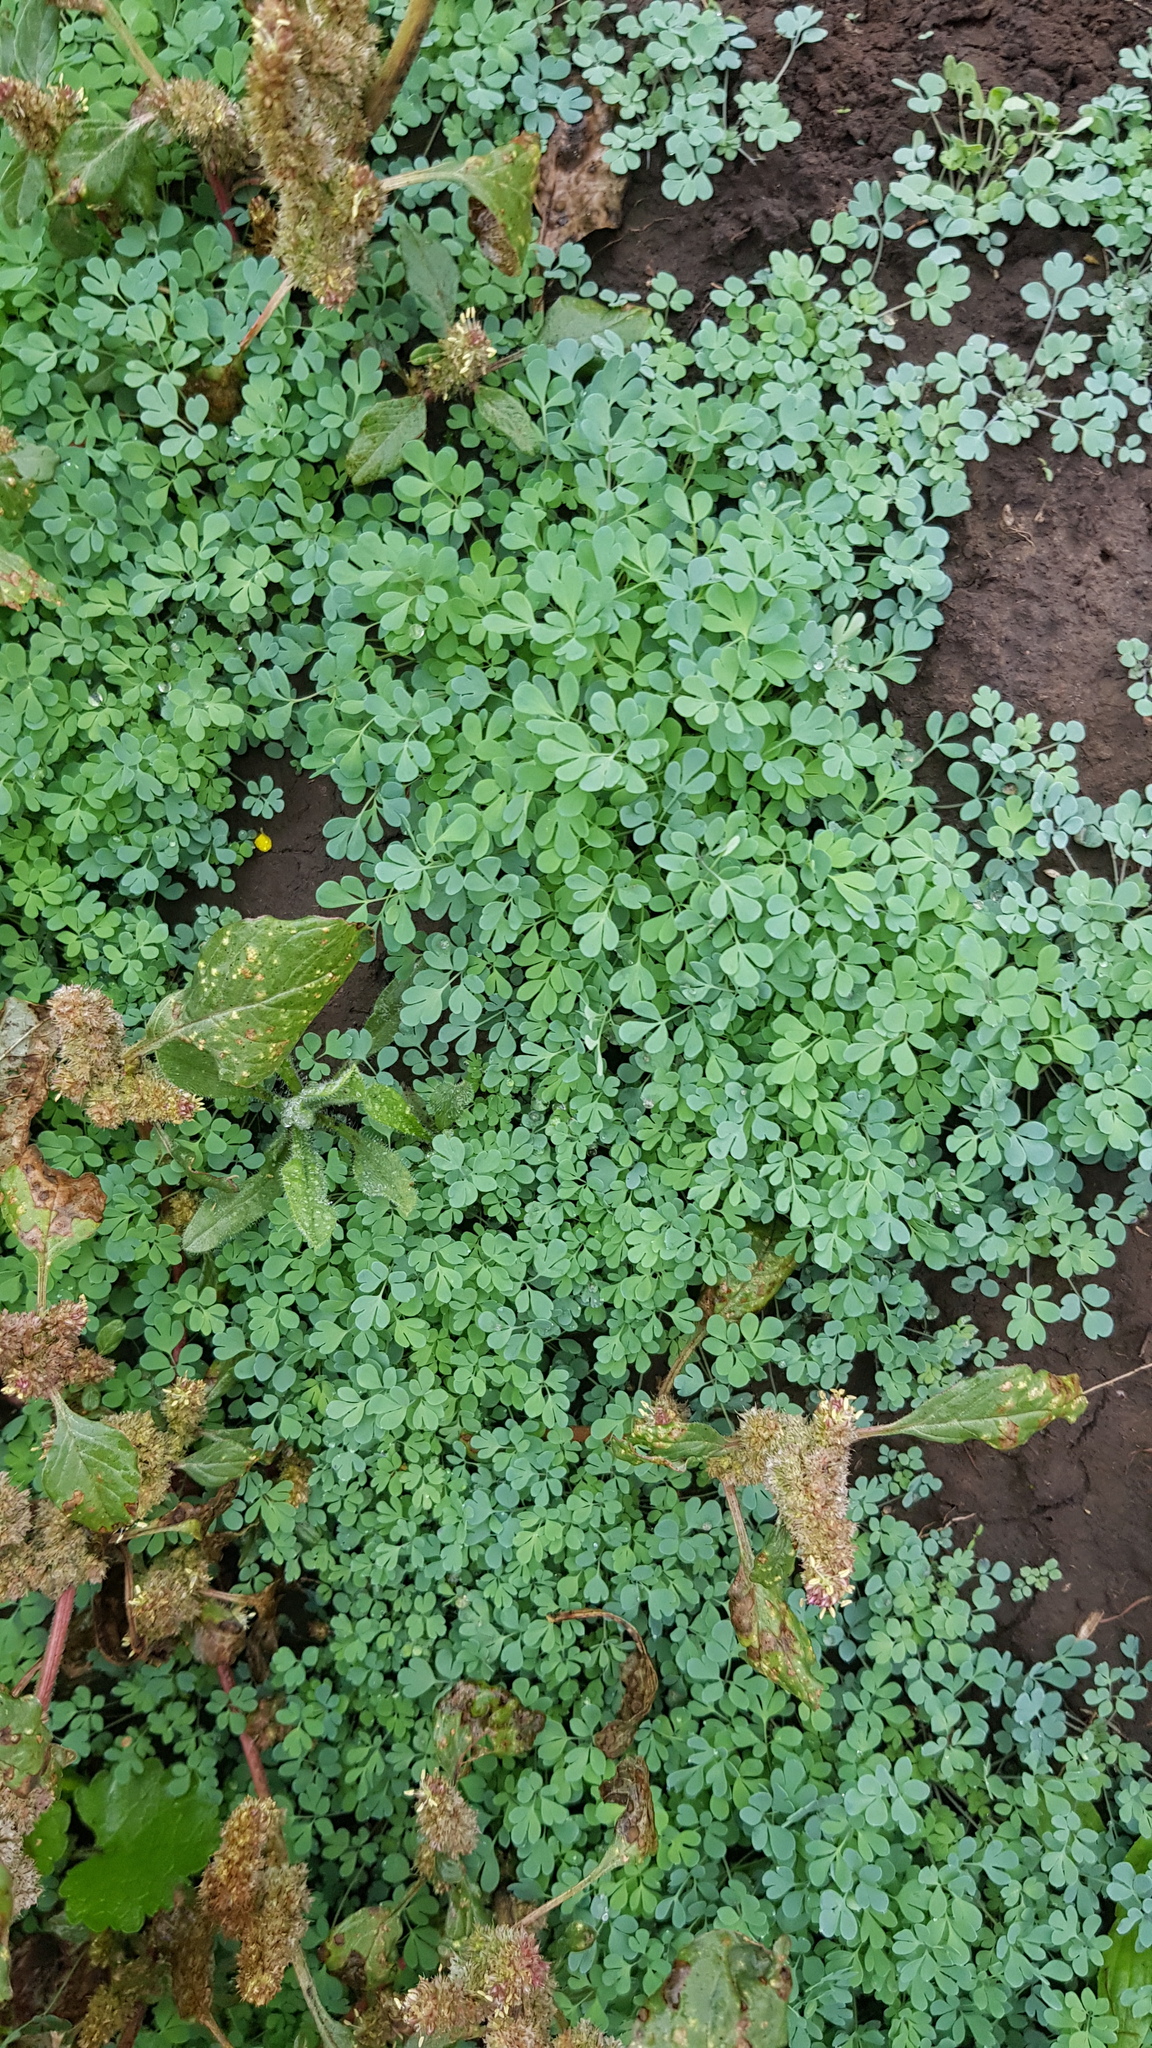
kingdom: Plantae
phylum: Tracheophyta
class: Magnoliopsida
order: Ranunculales
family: Ranunculaceae
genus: Leptopyrum
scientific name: Leptopyrum fumarioides
